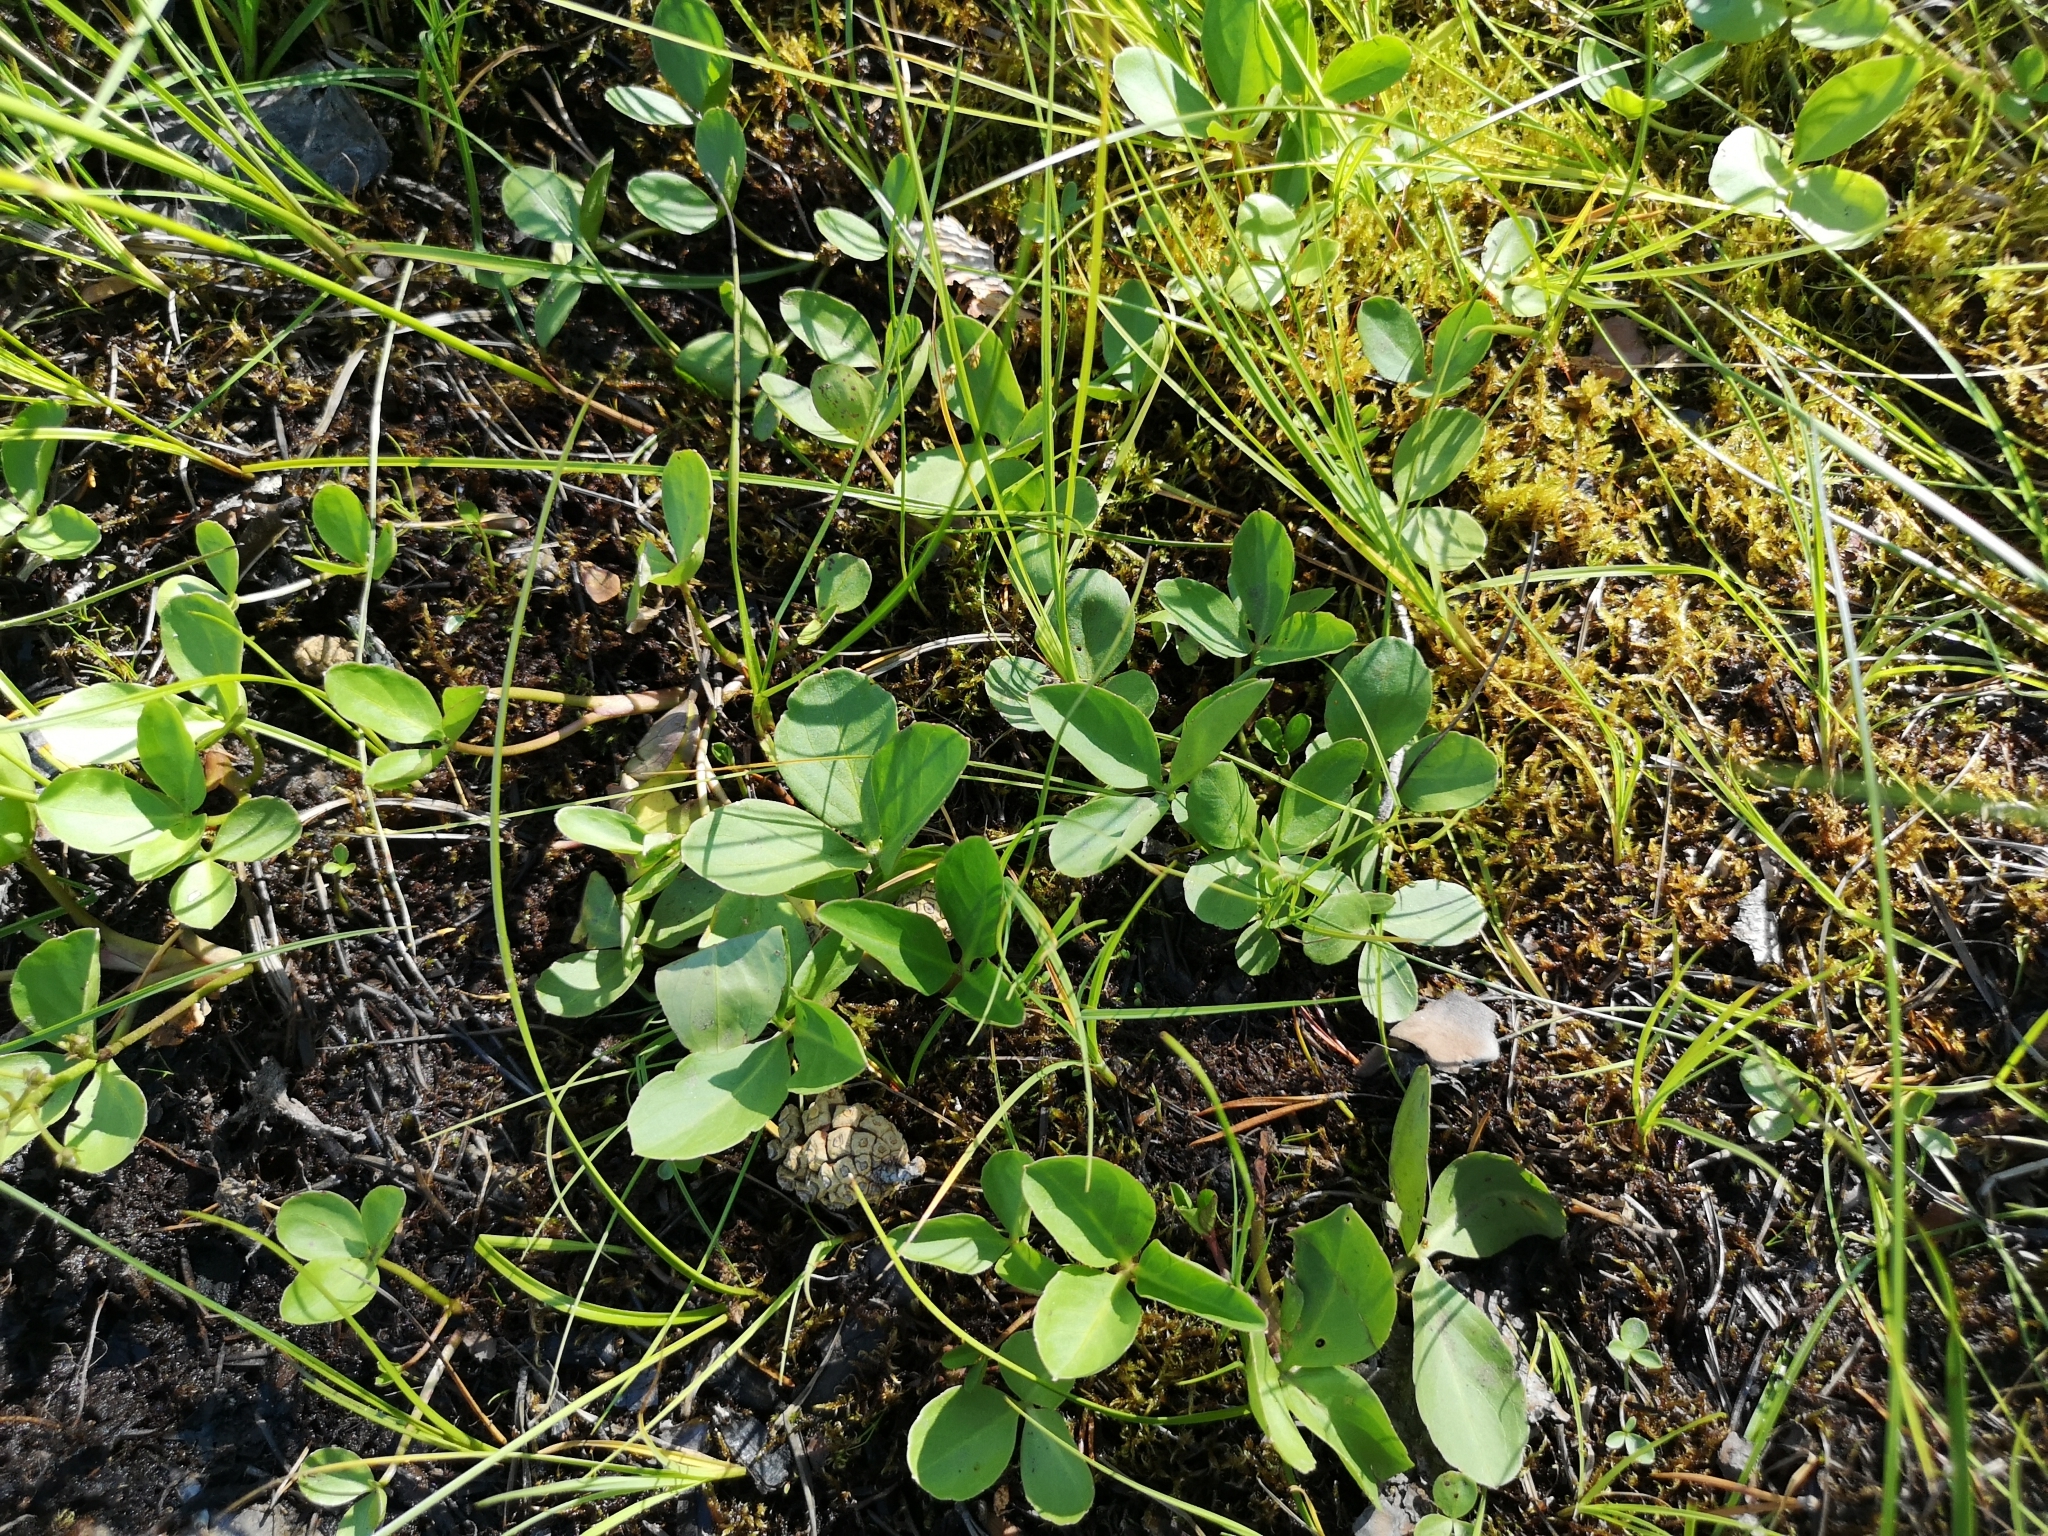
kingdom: Plantae
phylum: Tracheophyta
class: Magnoliopsida
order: Asterales
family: Menyanthaceae
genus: Menyanthes
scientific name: Menyanthes trifoliata
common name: Bogbean
